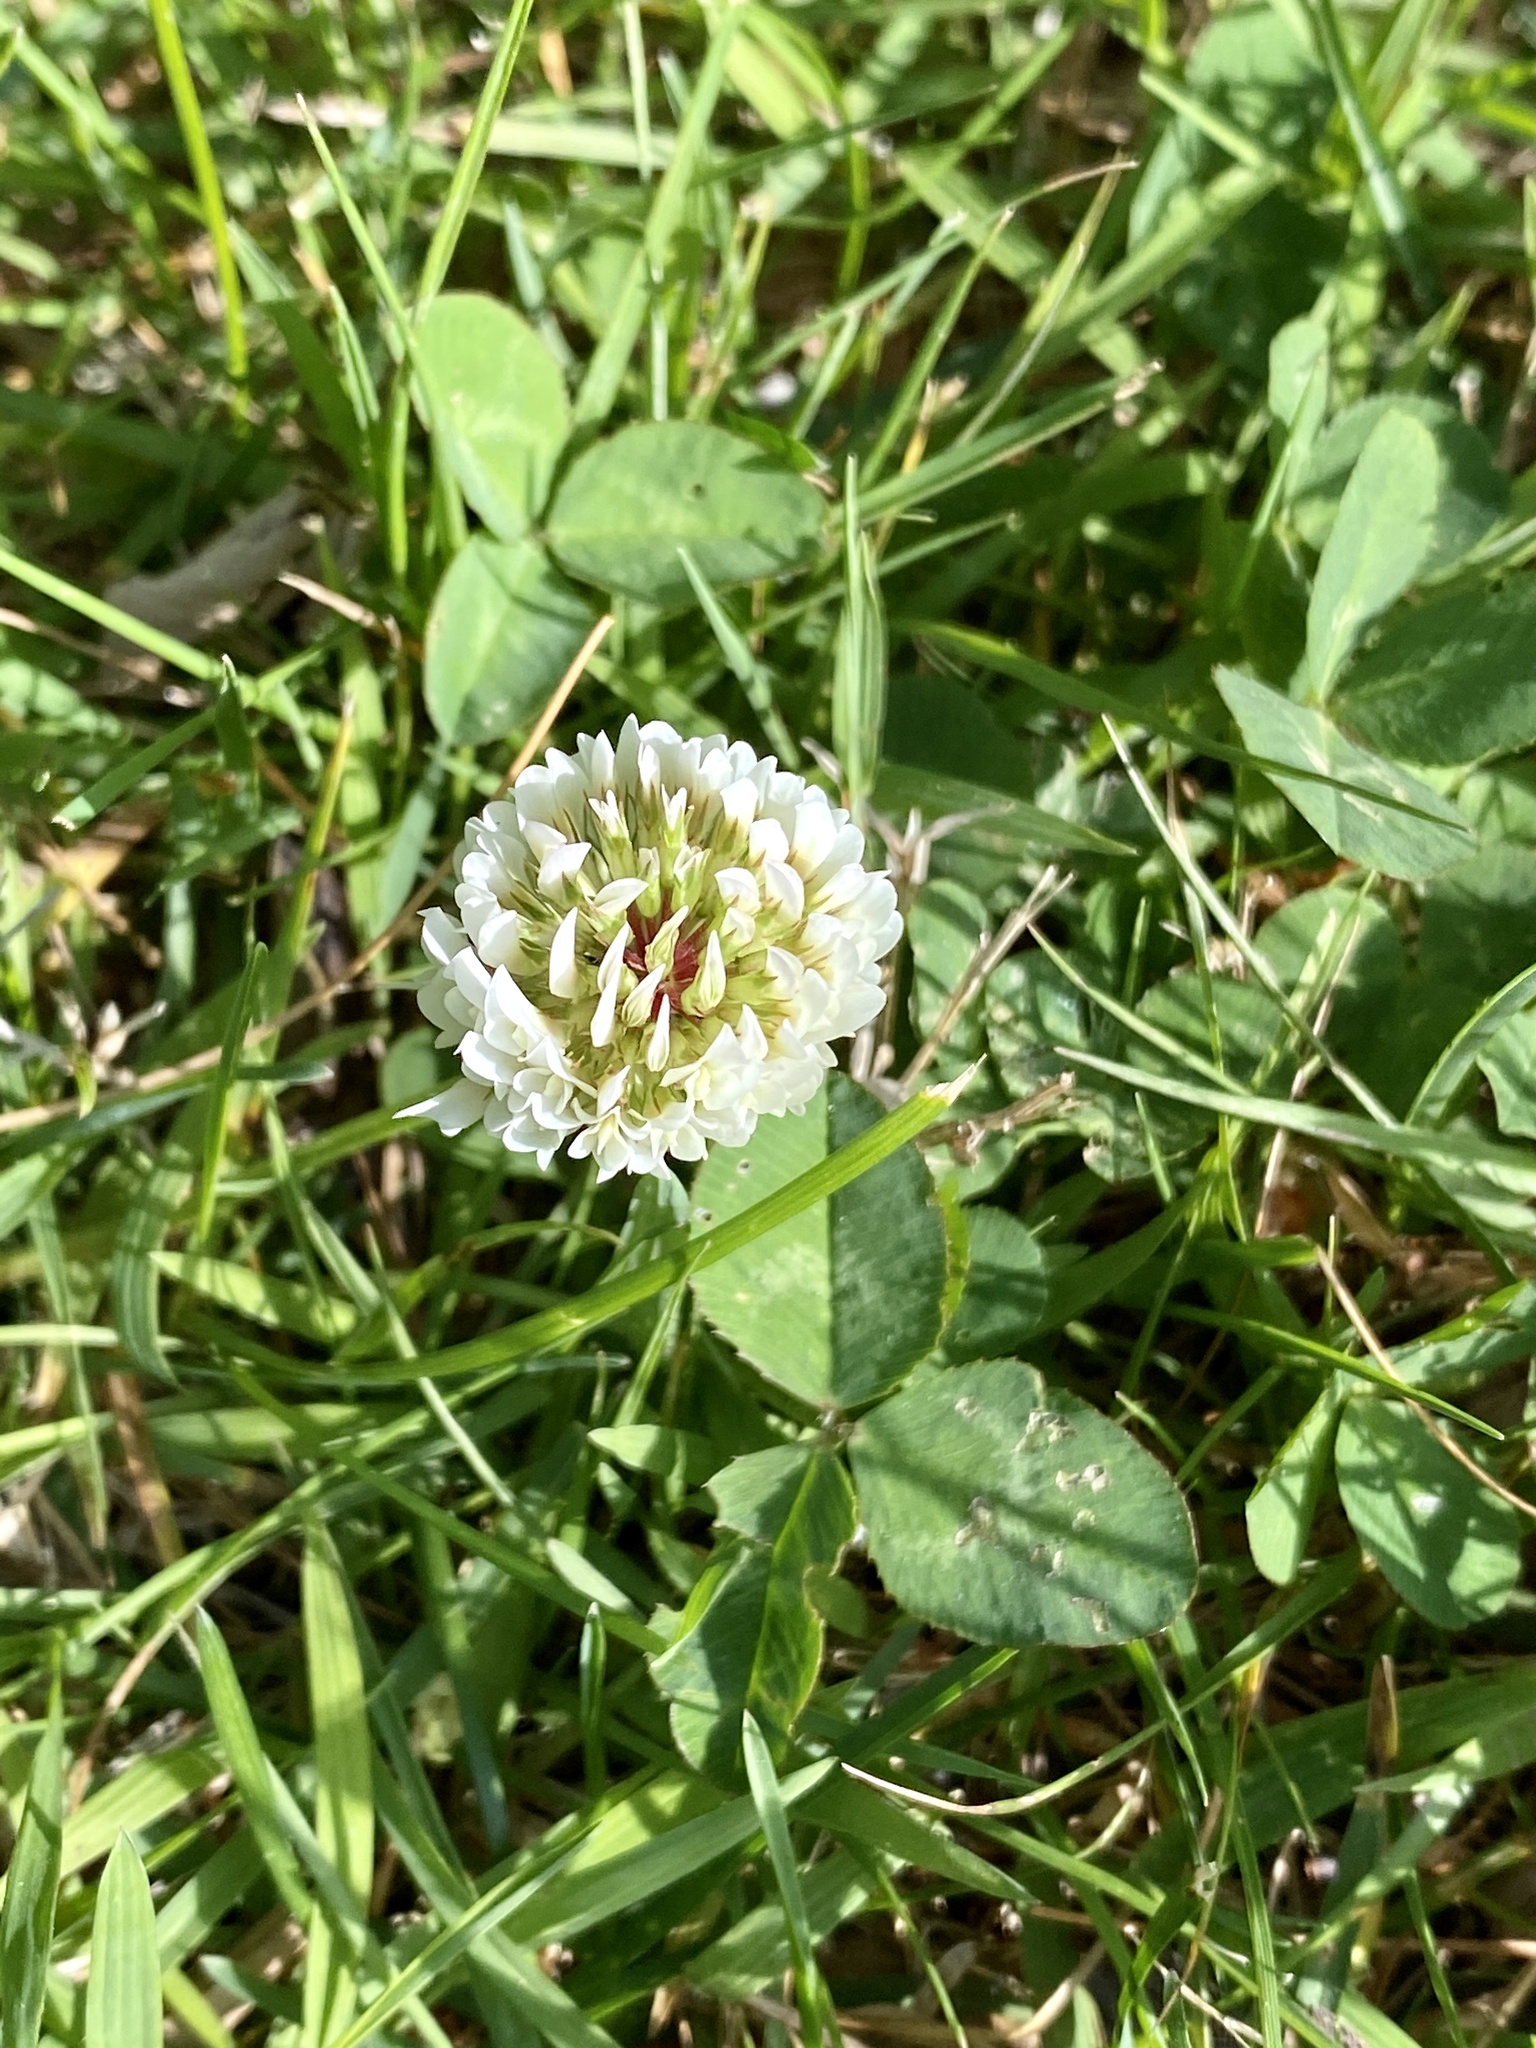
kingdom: Plantae
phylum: Tracheophyta
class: Magnoliopsida
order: Fabales
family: Fabaceae
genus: Trifolium
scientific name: Trifolium repens
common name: White clover
